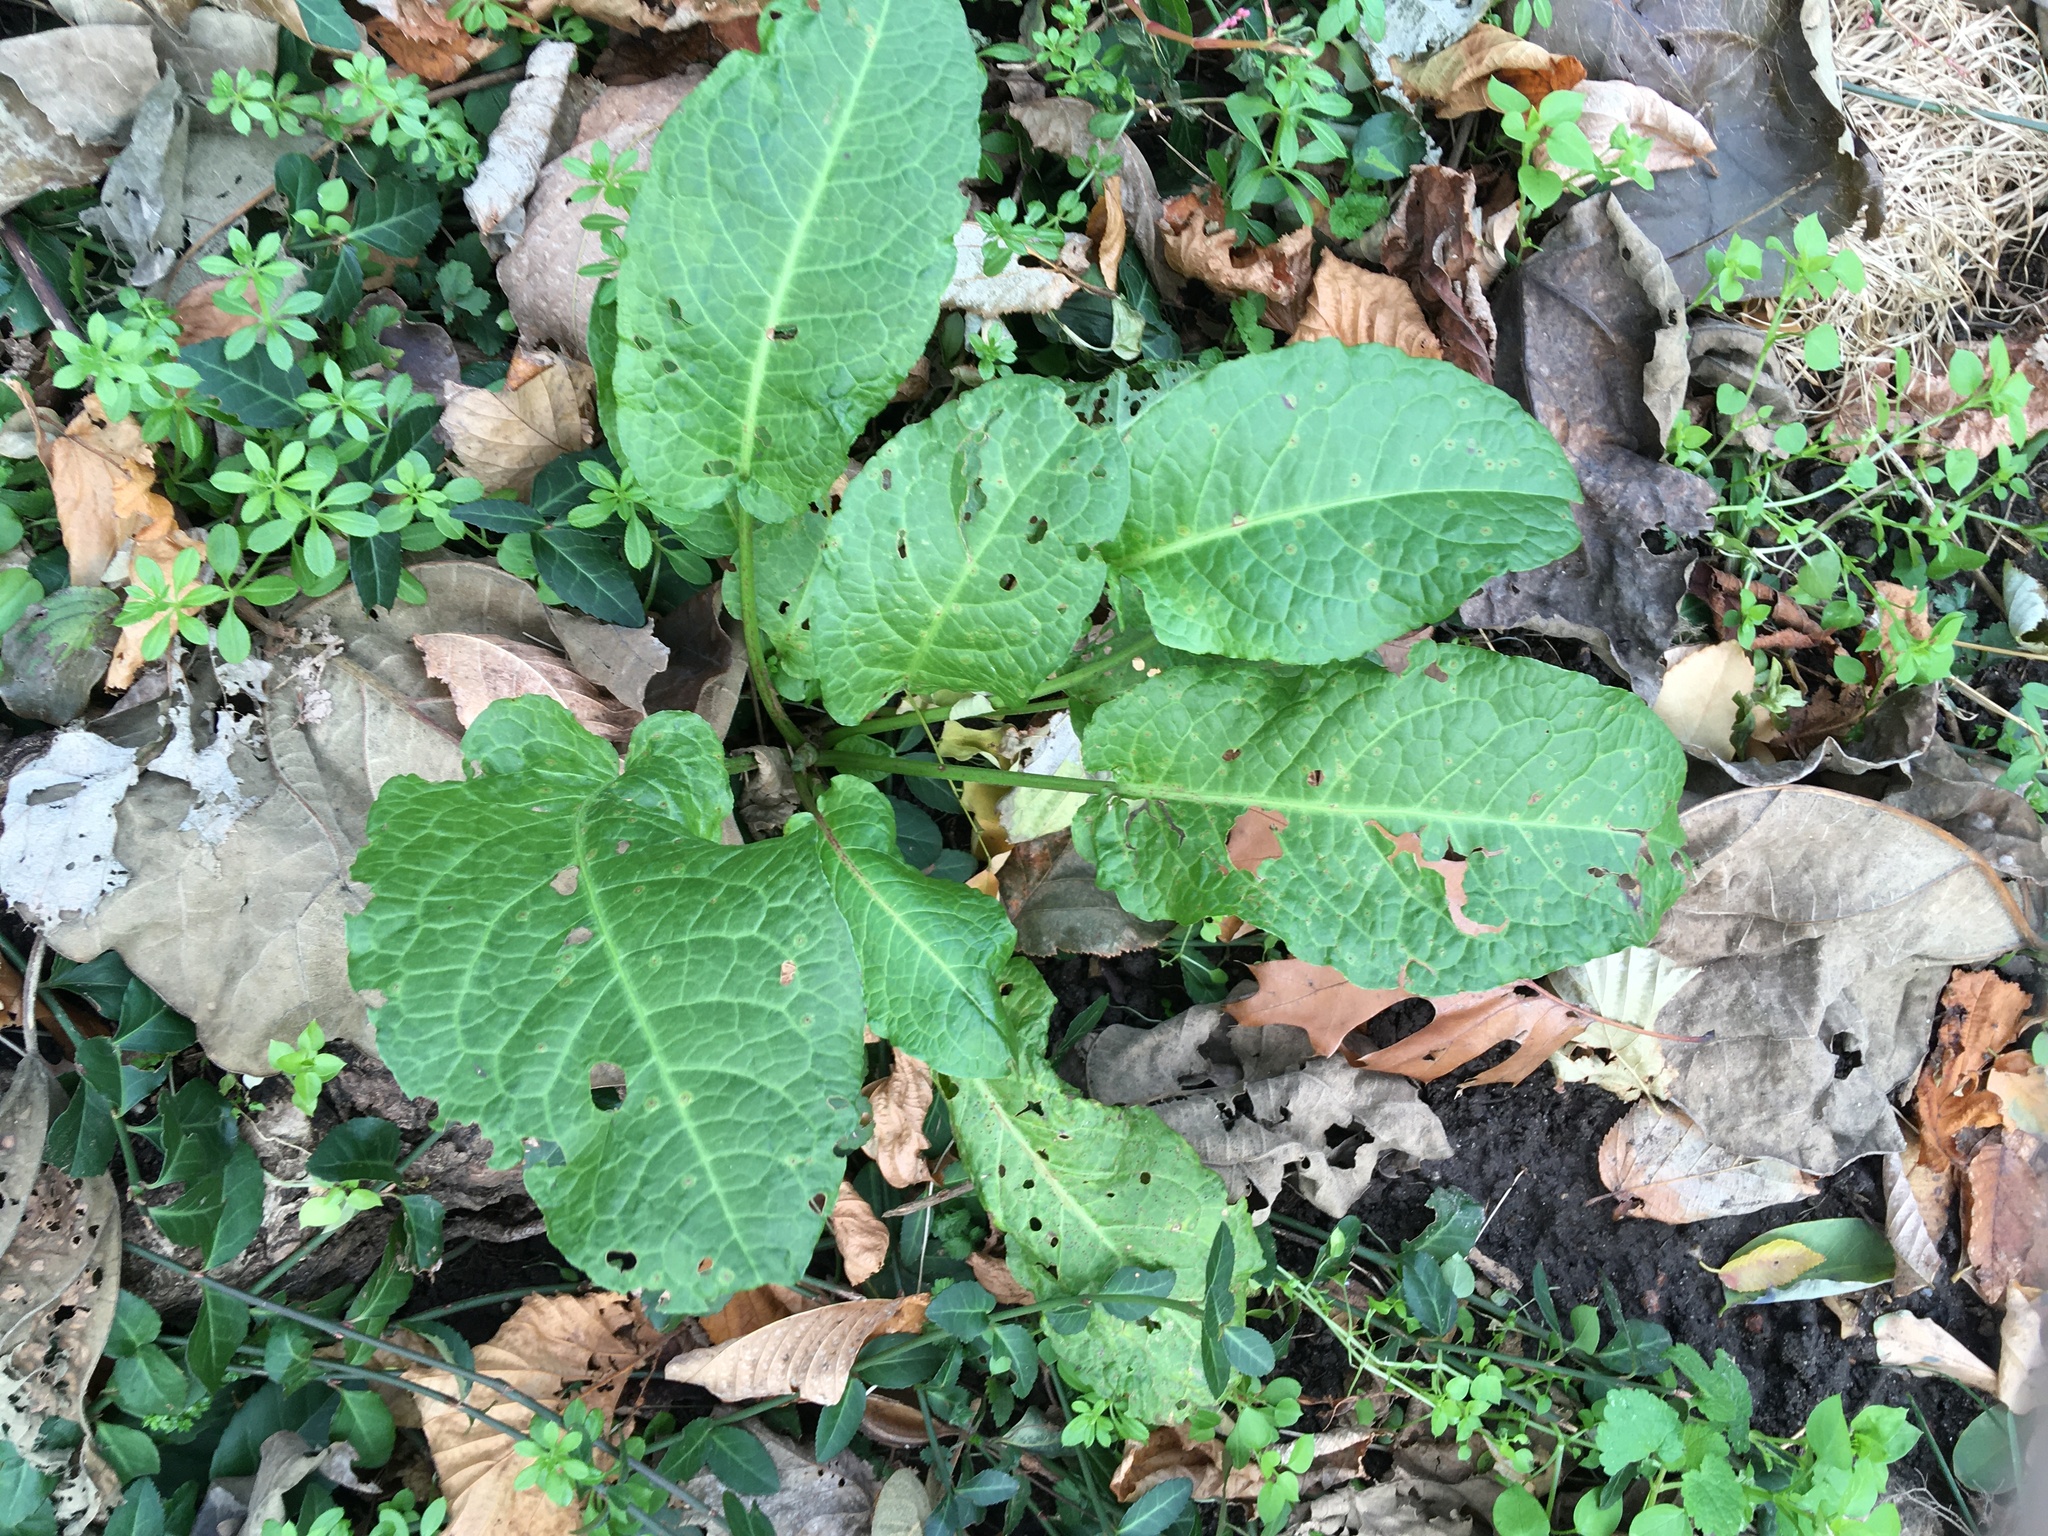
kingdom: Plantae
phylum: Tracheophyta
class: Magnoliopsida
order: Caryophyllales
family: Polygonaceae
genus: Rumex
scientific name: Rumex obtusifolius
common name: Bitter dock
